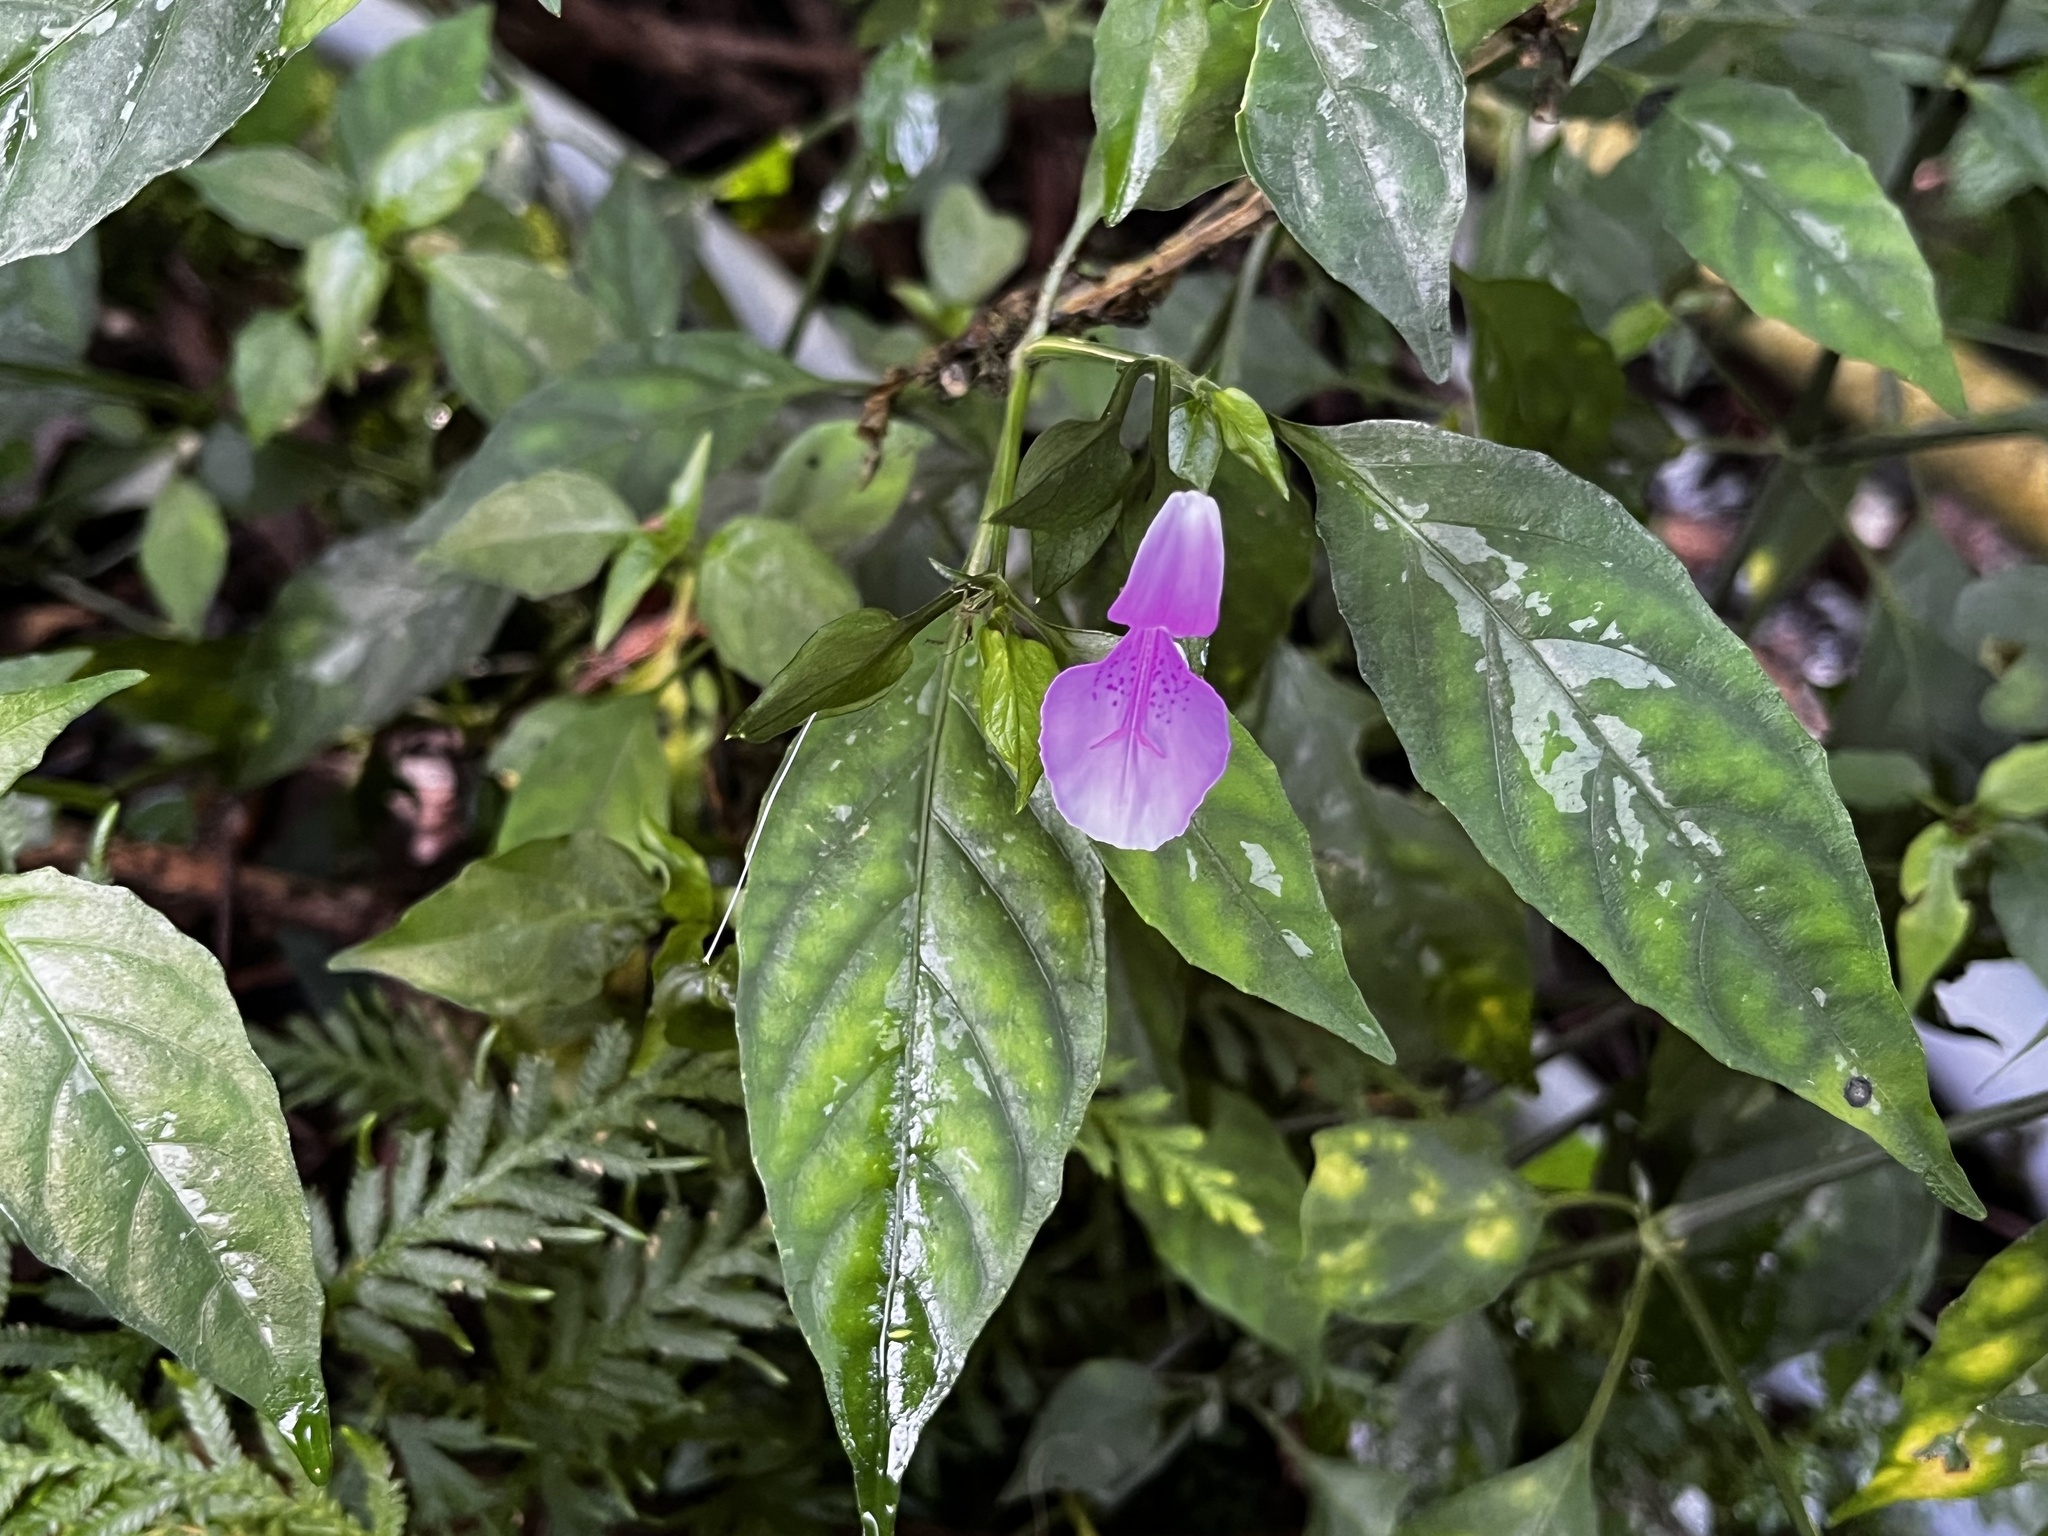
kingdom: Plantae
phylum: Tracheophyta
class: Magnoliopsida
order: Lamiales
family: Acanthaceae
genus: Dicliptera
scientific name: Dicliptera japonica
